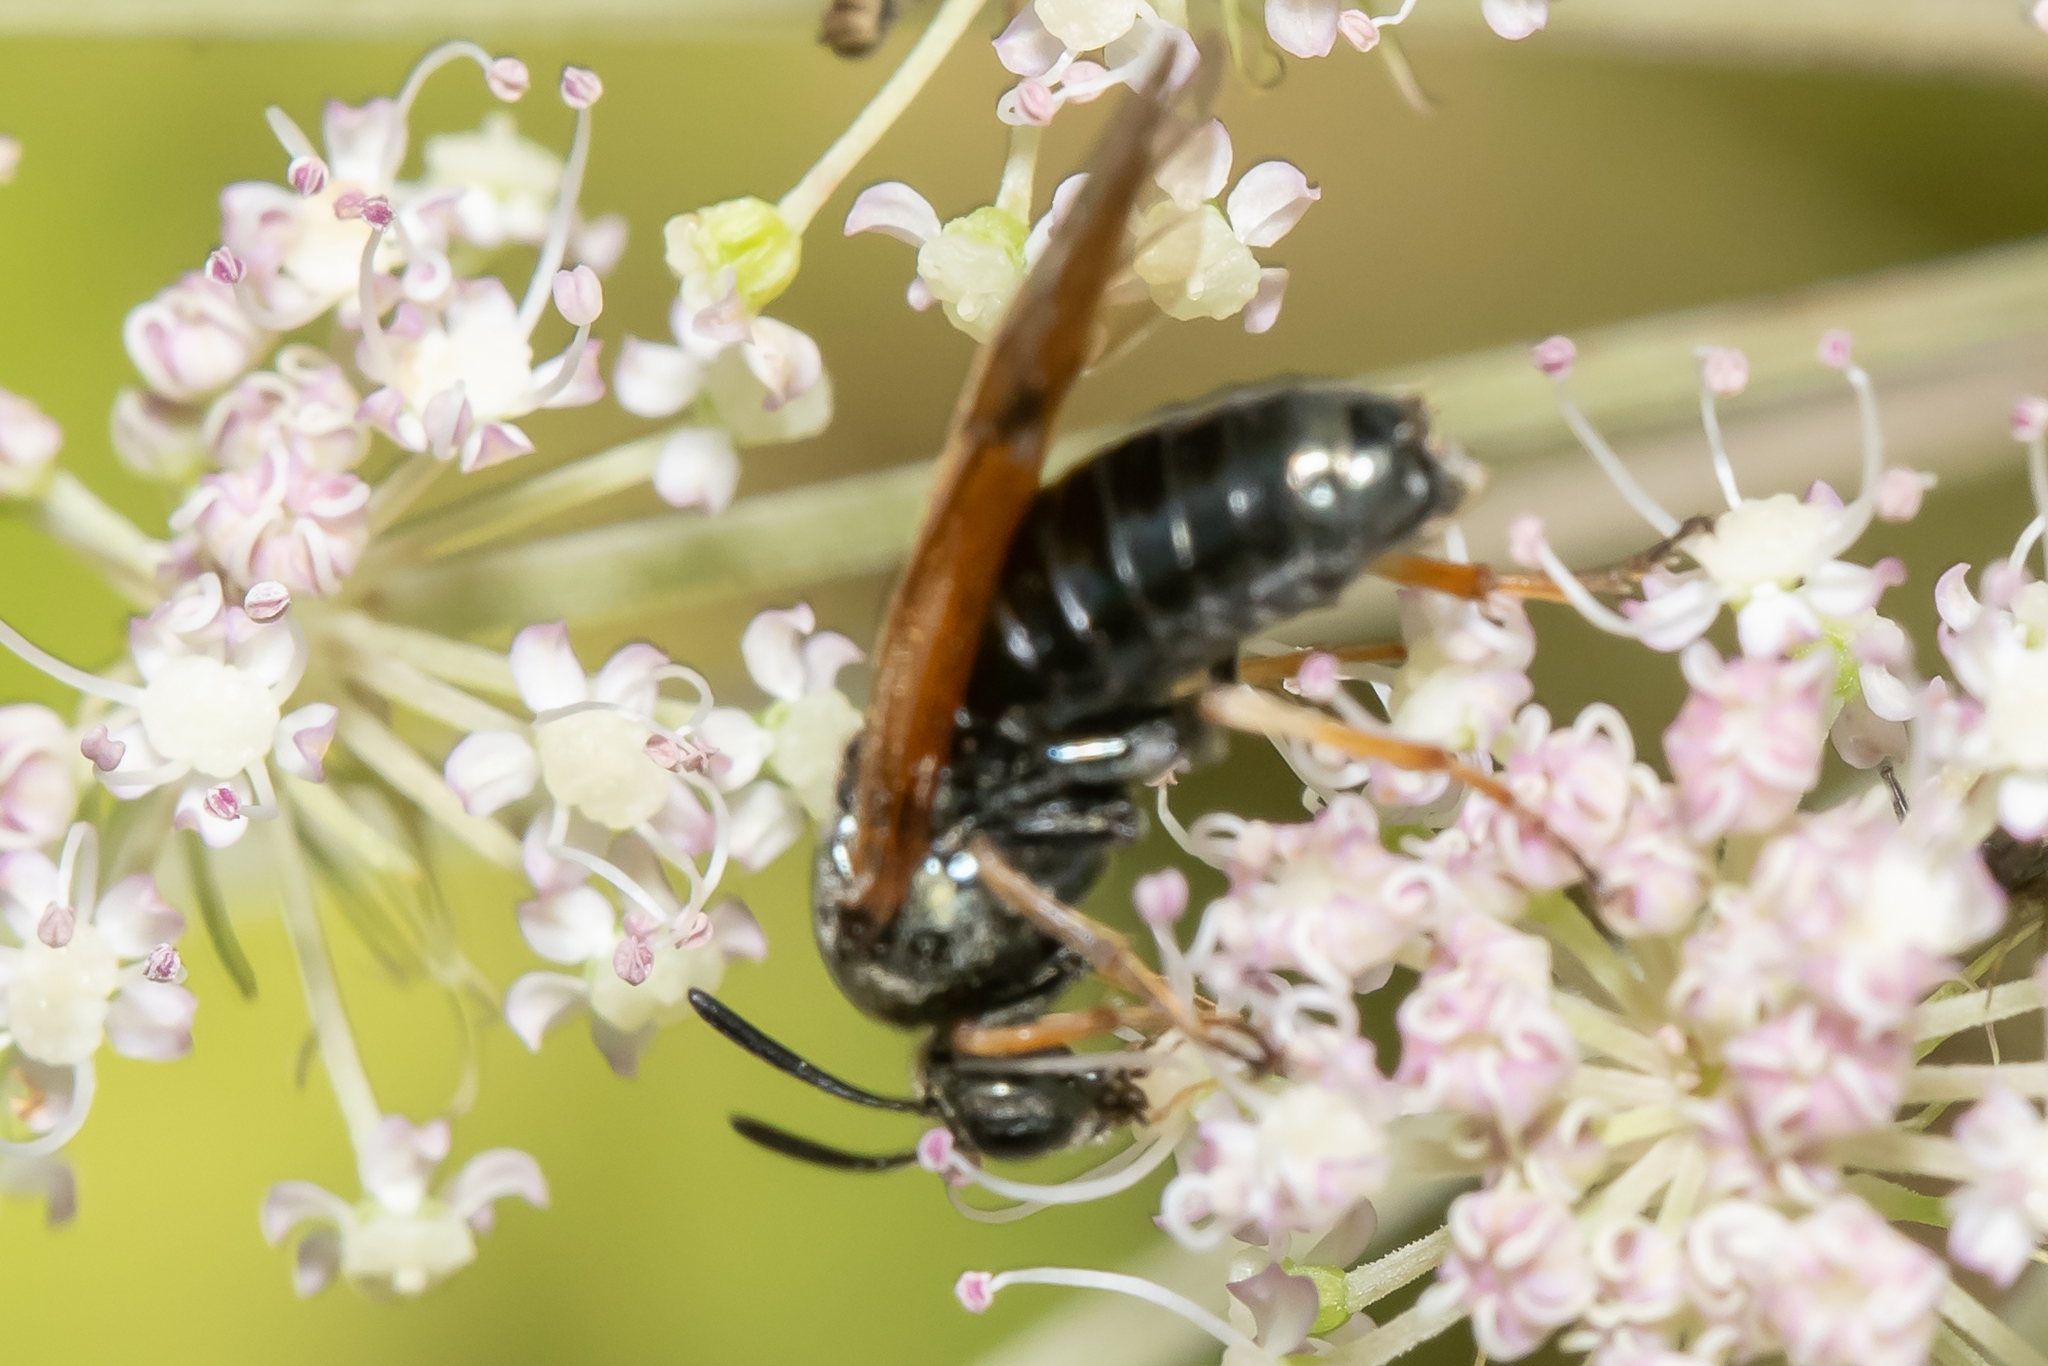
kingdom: Animalia
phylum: Arthropoda
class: Insecta
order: Hymenoptera
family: Argidae
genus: Arge
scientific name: Arge ustulata
